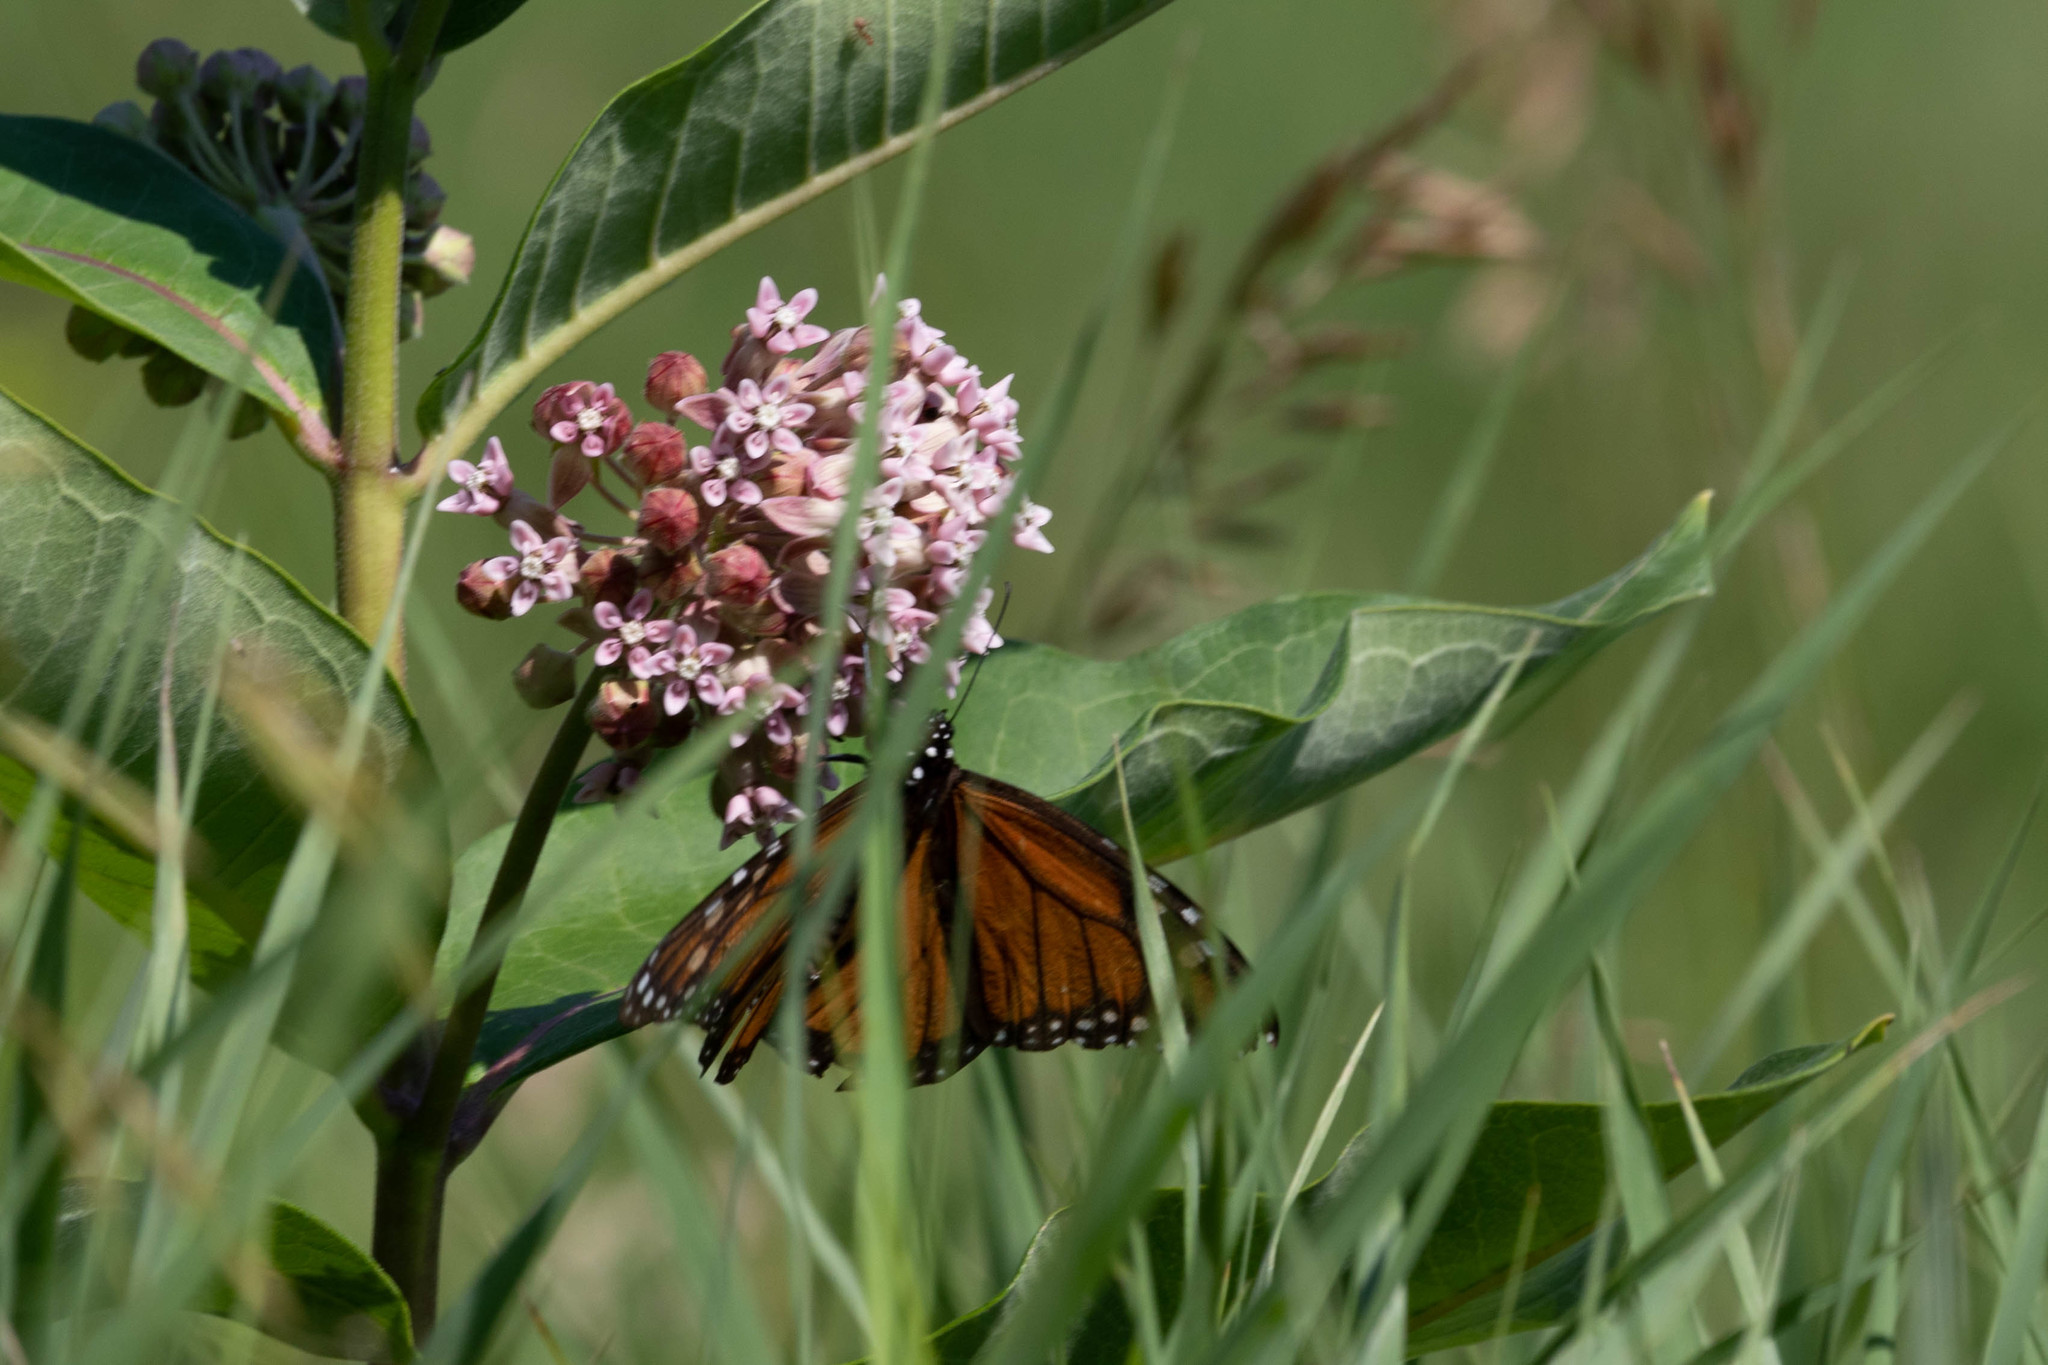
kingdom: Animalia
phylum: Arthropoda
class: Insecta
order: Lepidoptera
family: Nymphalidae
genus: Danaus
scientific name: Danaus plexippus
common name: Monarch
